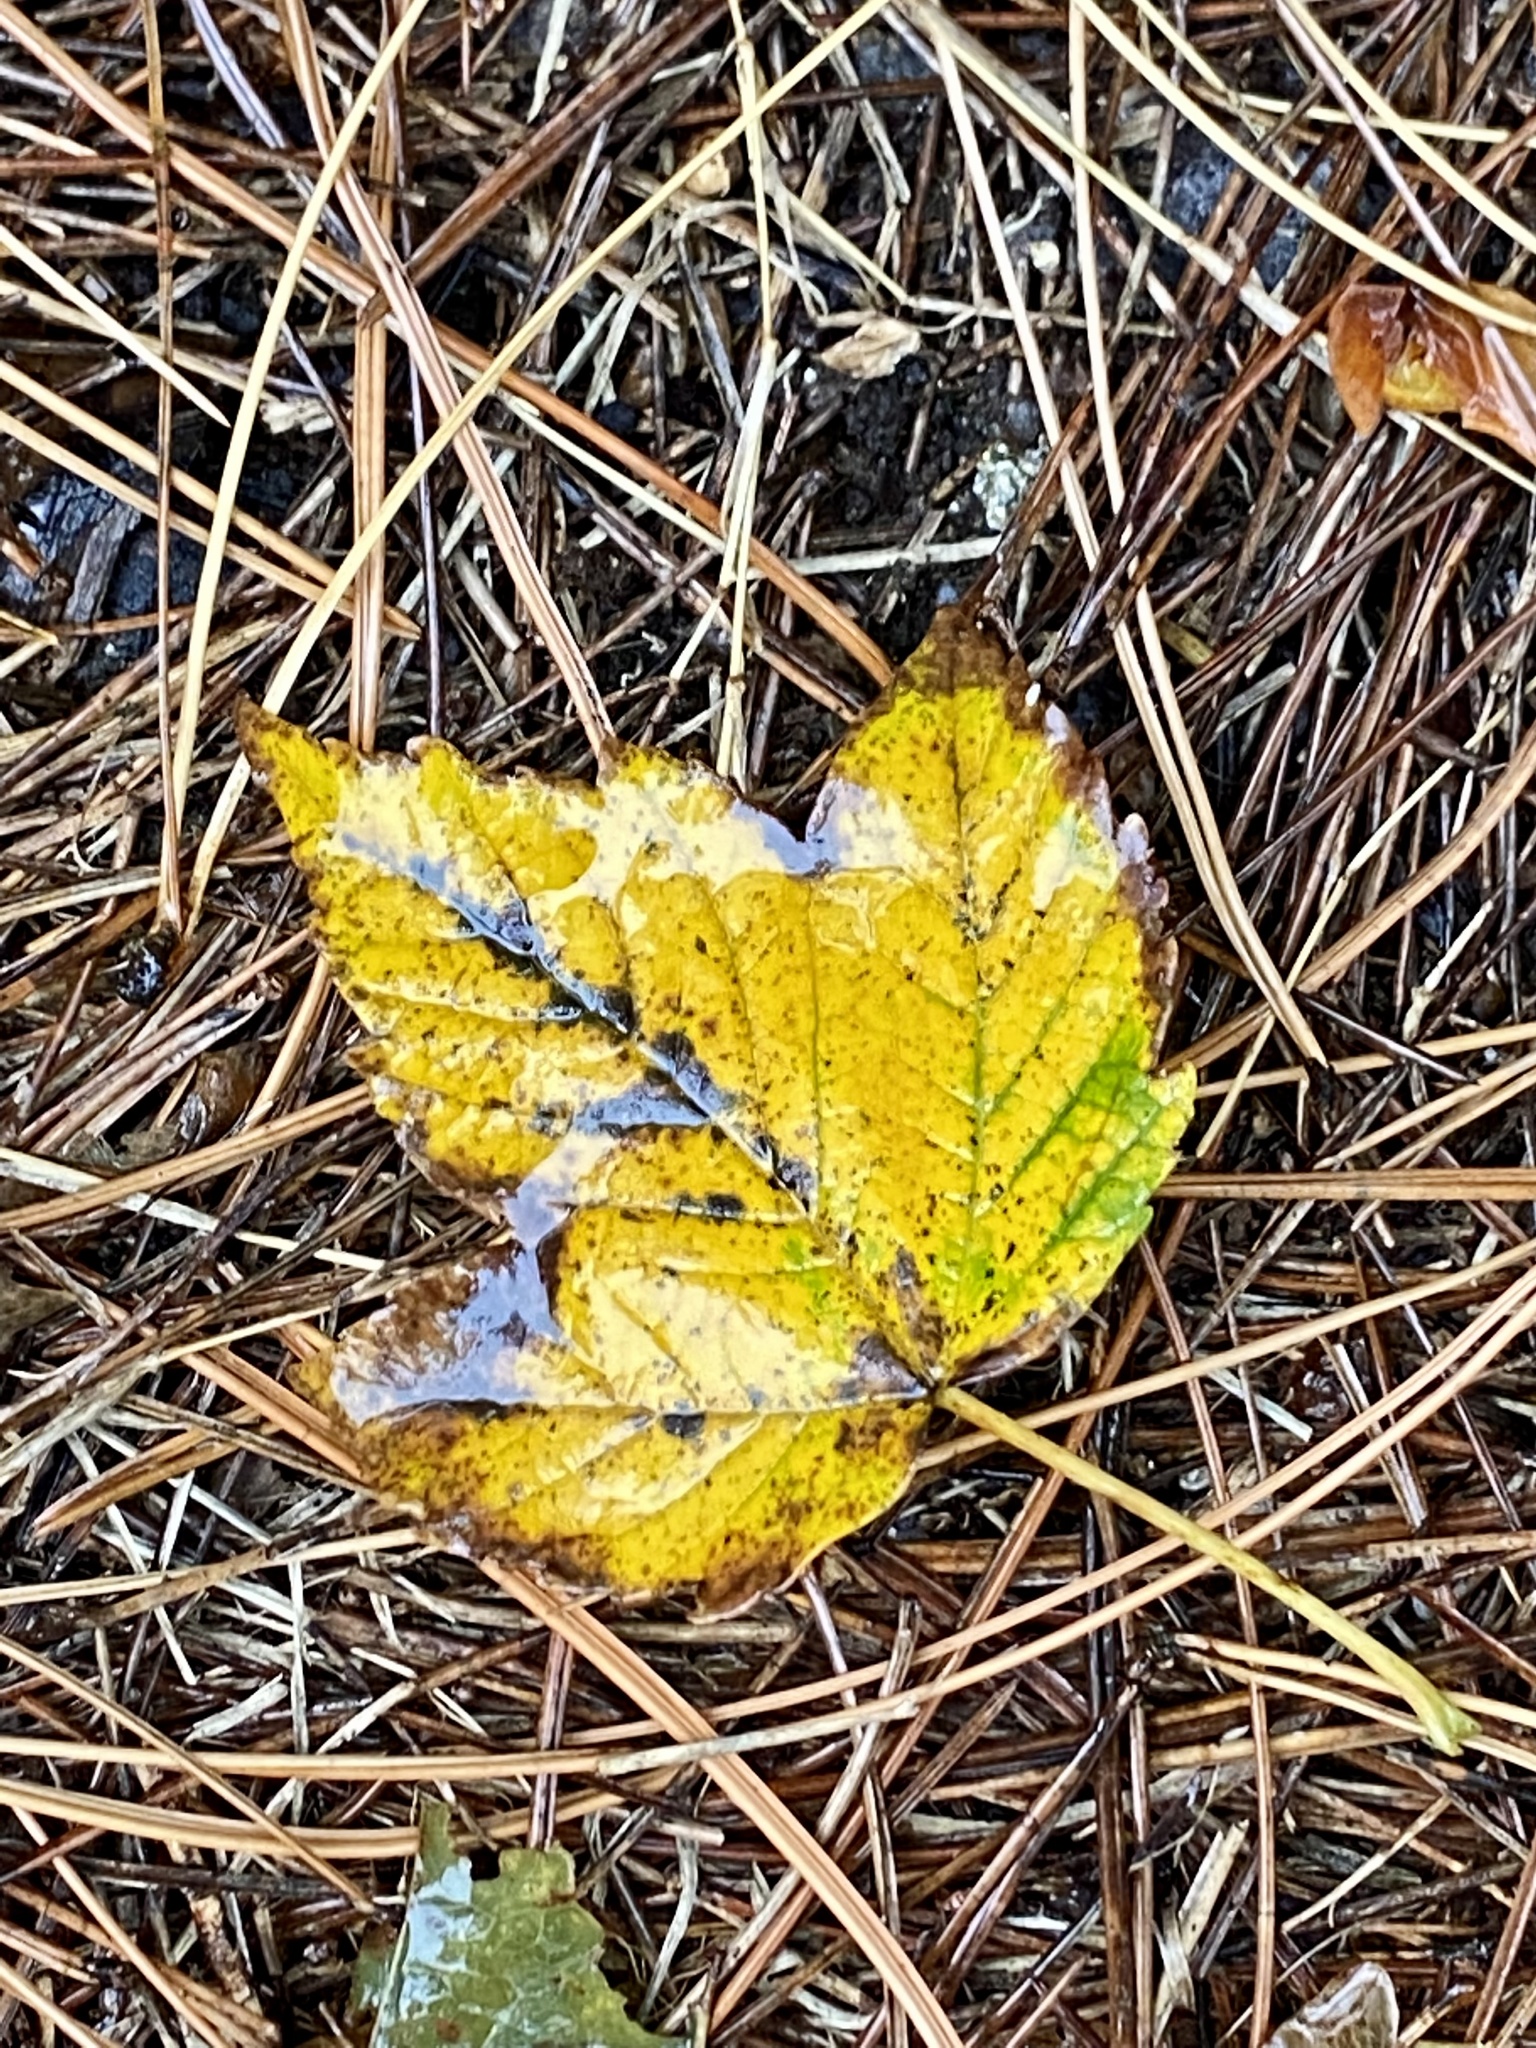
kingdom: Plantae
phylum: Tracheophyta
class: Magnoliopsida
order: Sapindales
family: Sapindaceae
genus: Acer
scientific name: Acer pseudoplatanus
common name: Sycamore
